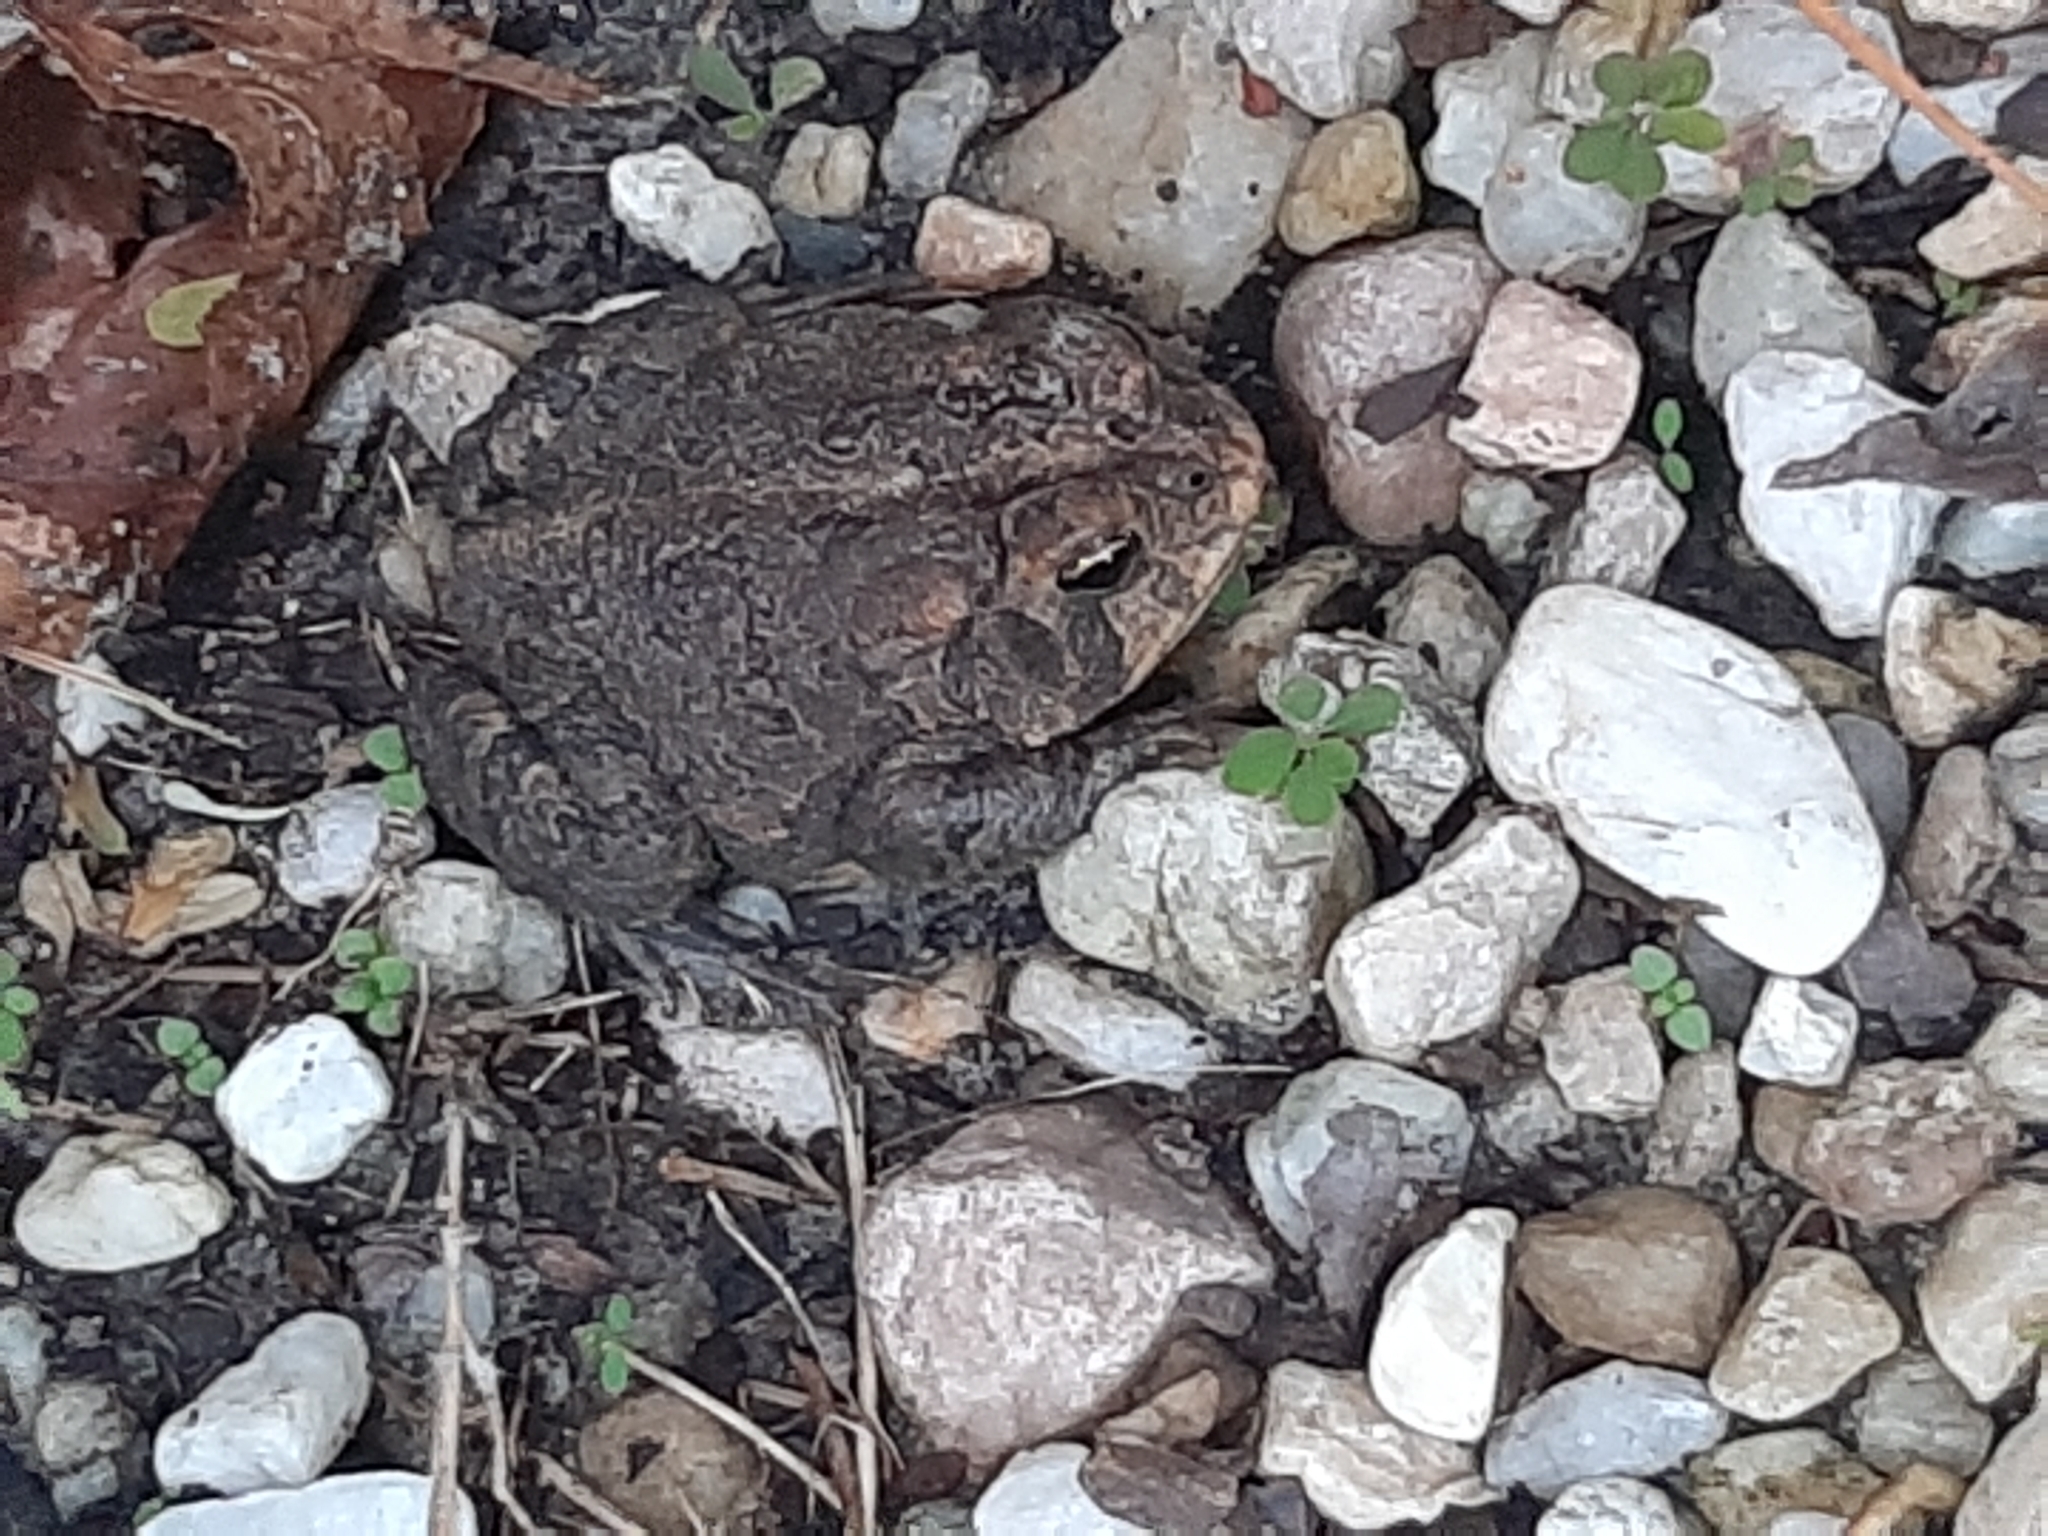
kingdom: Animalia
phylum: Chordata
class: Amphibia
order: Anura
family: Bufonidae
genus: Anaxyrus
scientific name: Anaxyrus terrestris
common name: Southern toad
